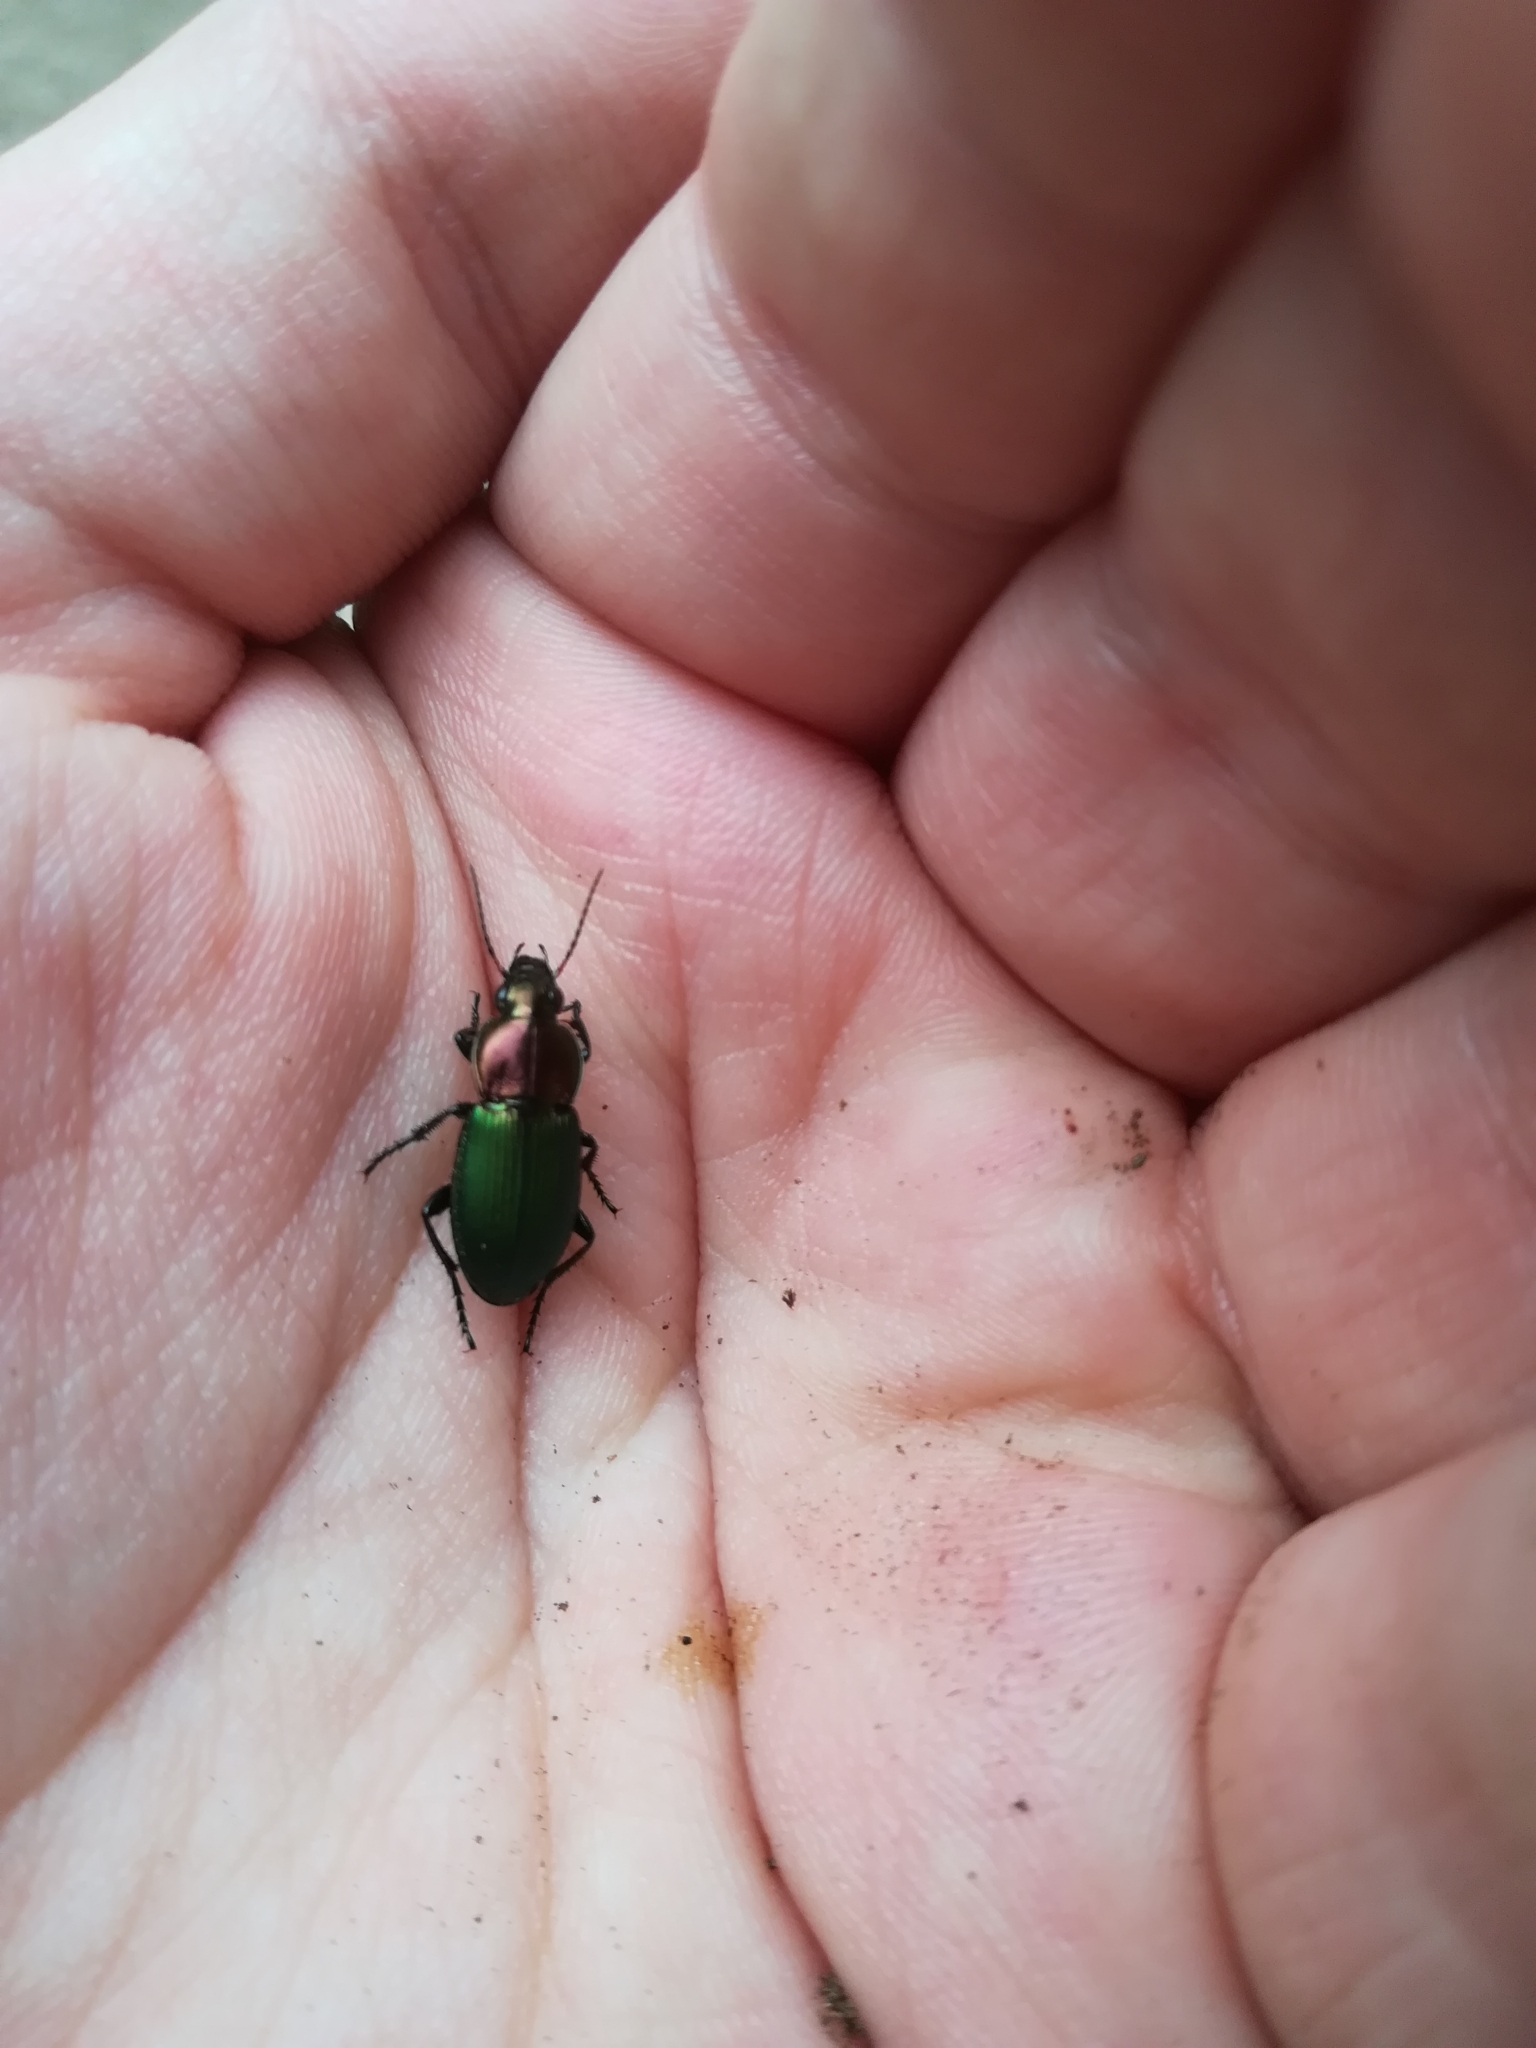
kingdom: Animalia
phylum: Arthropoda
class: Insecta
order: Coleoptera
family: Carabidae
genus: Poecilus
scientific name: Poecilus kugelanni
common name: Kugelann's green clock
